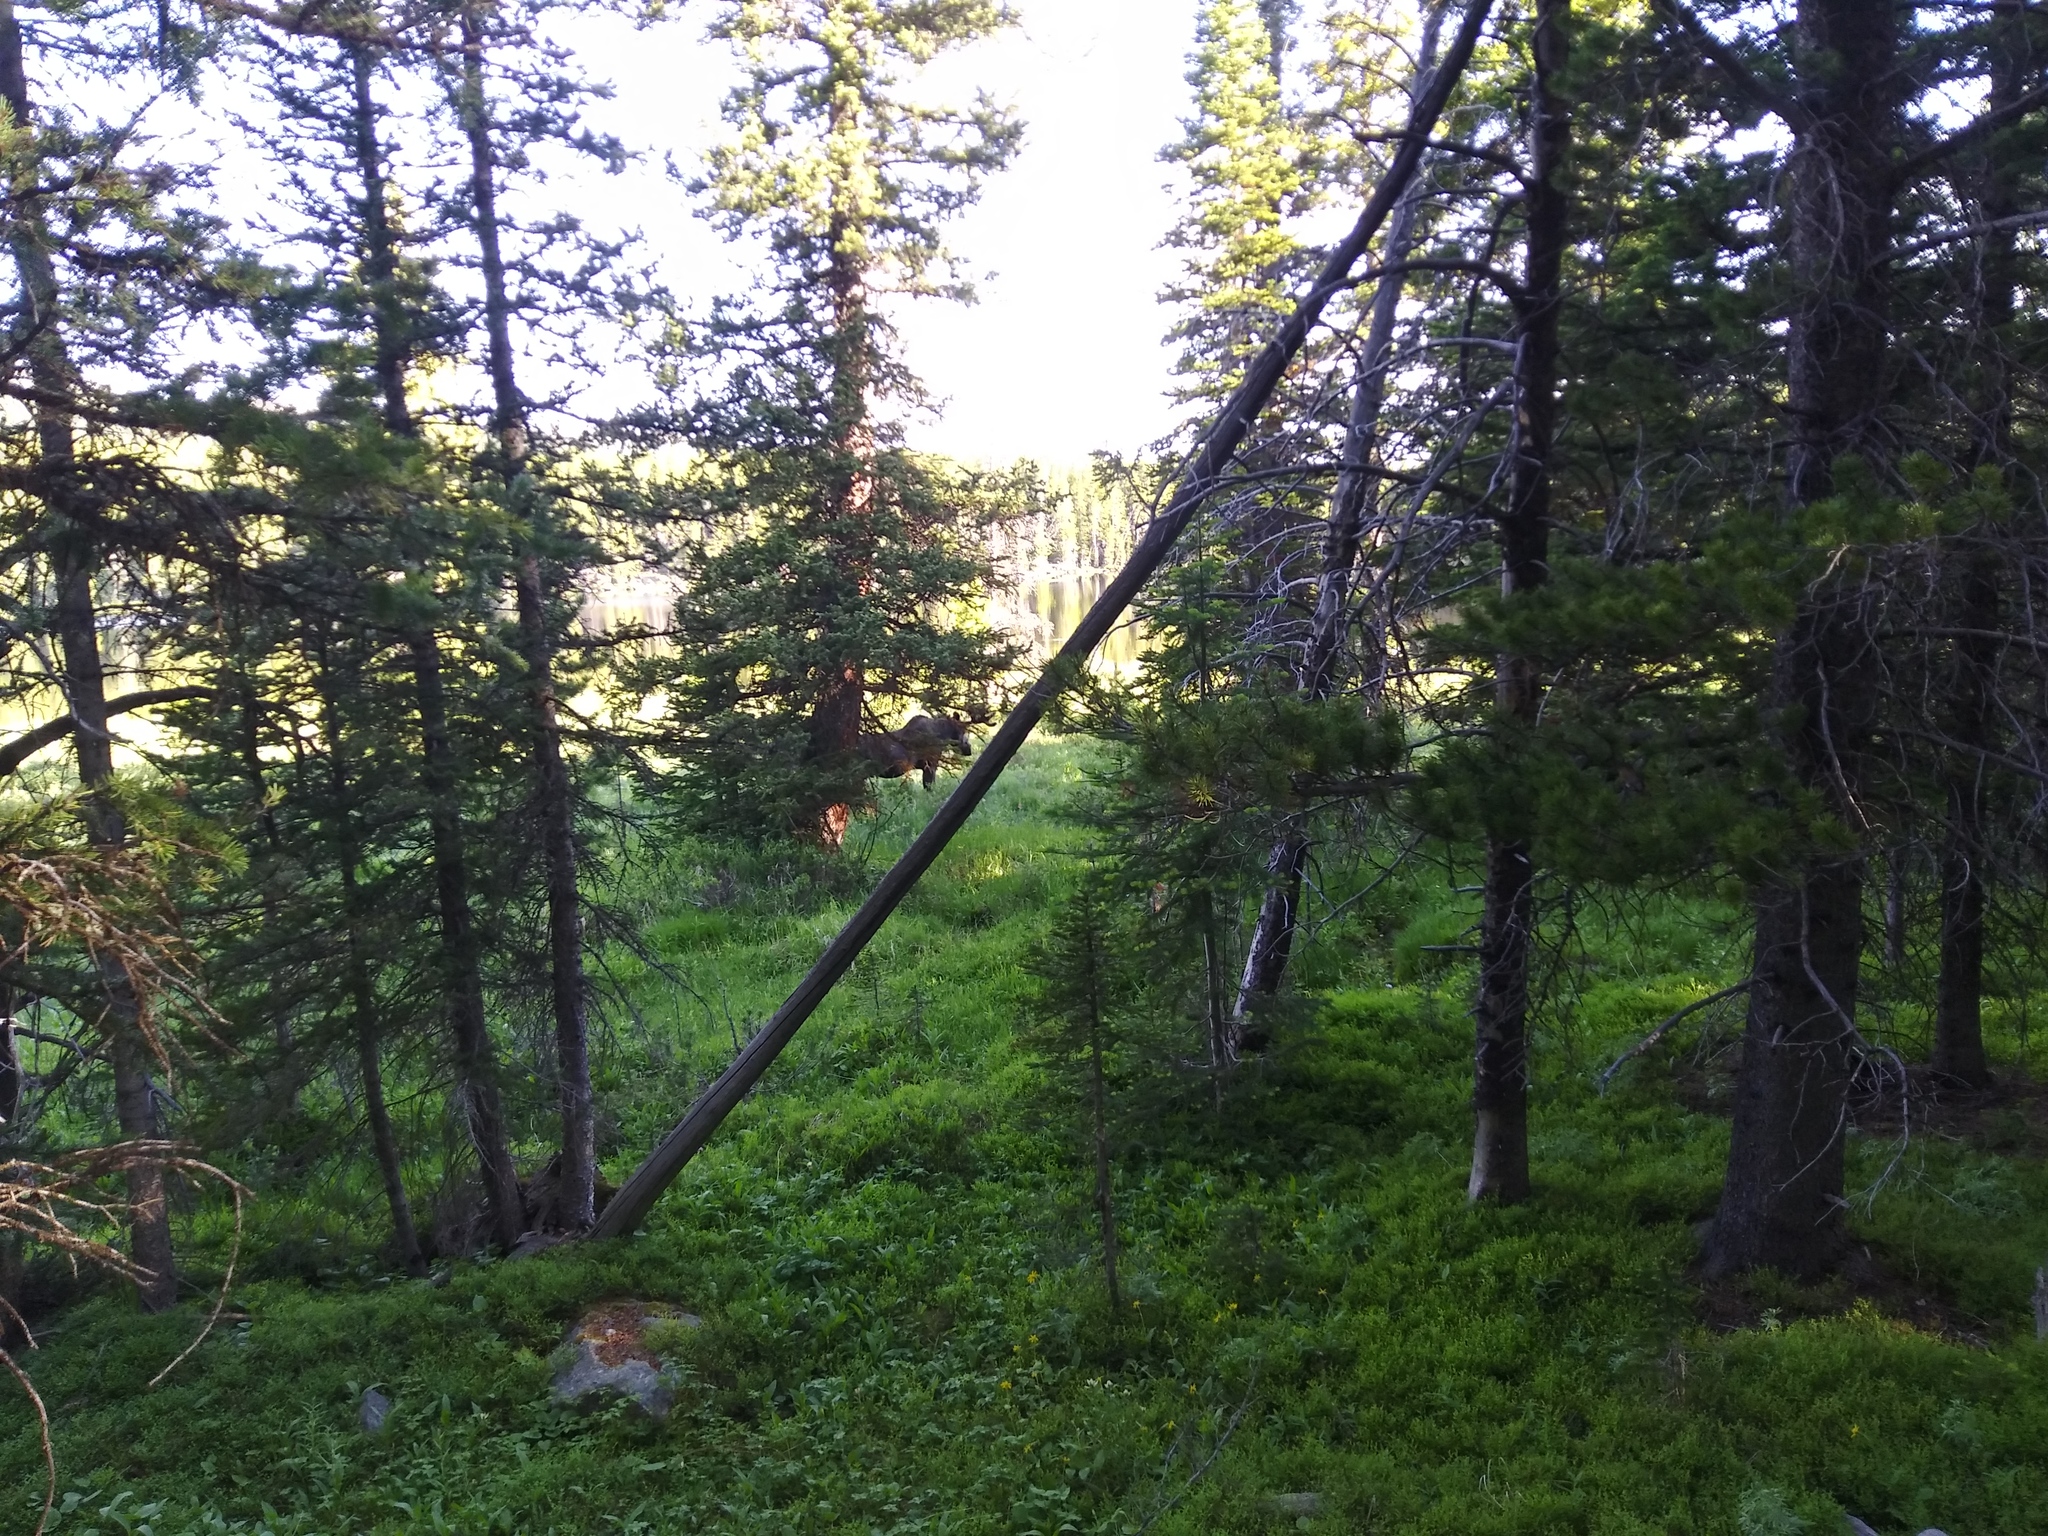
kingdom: Animalia
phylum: Chordata
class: Mammalia
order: Artiodactyla
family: Cervidae
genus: Alces
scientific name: Alces alces
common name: Moose
